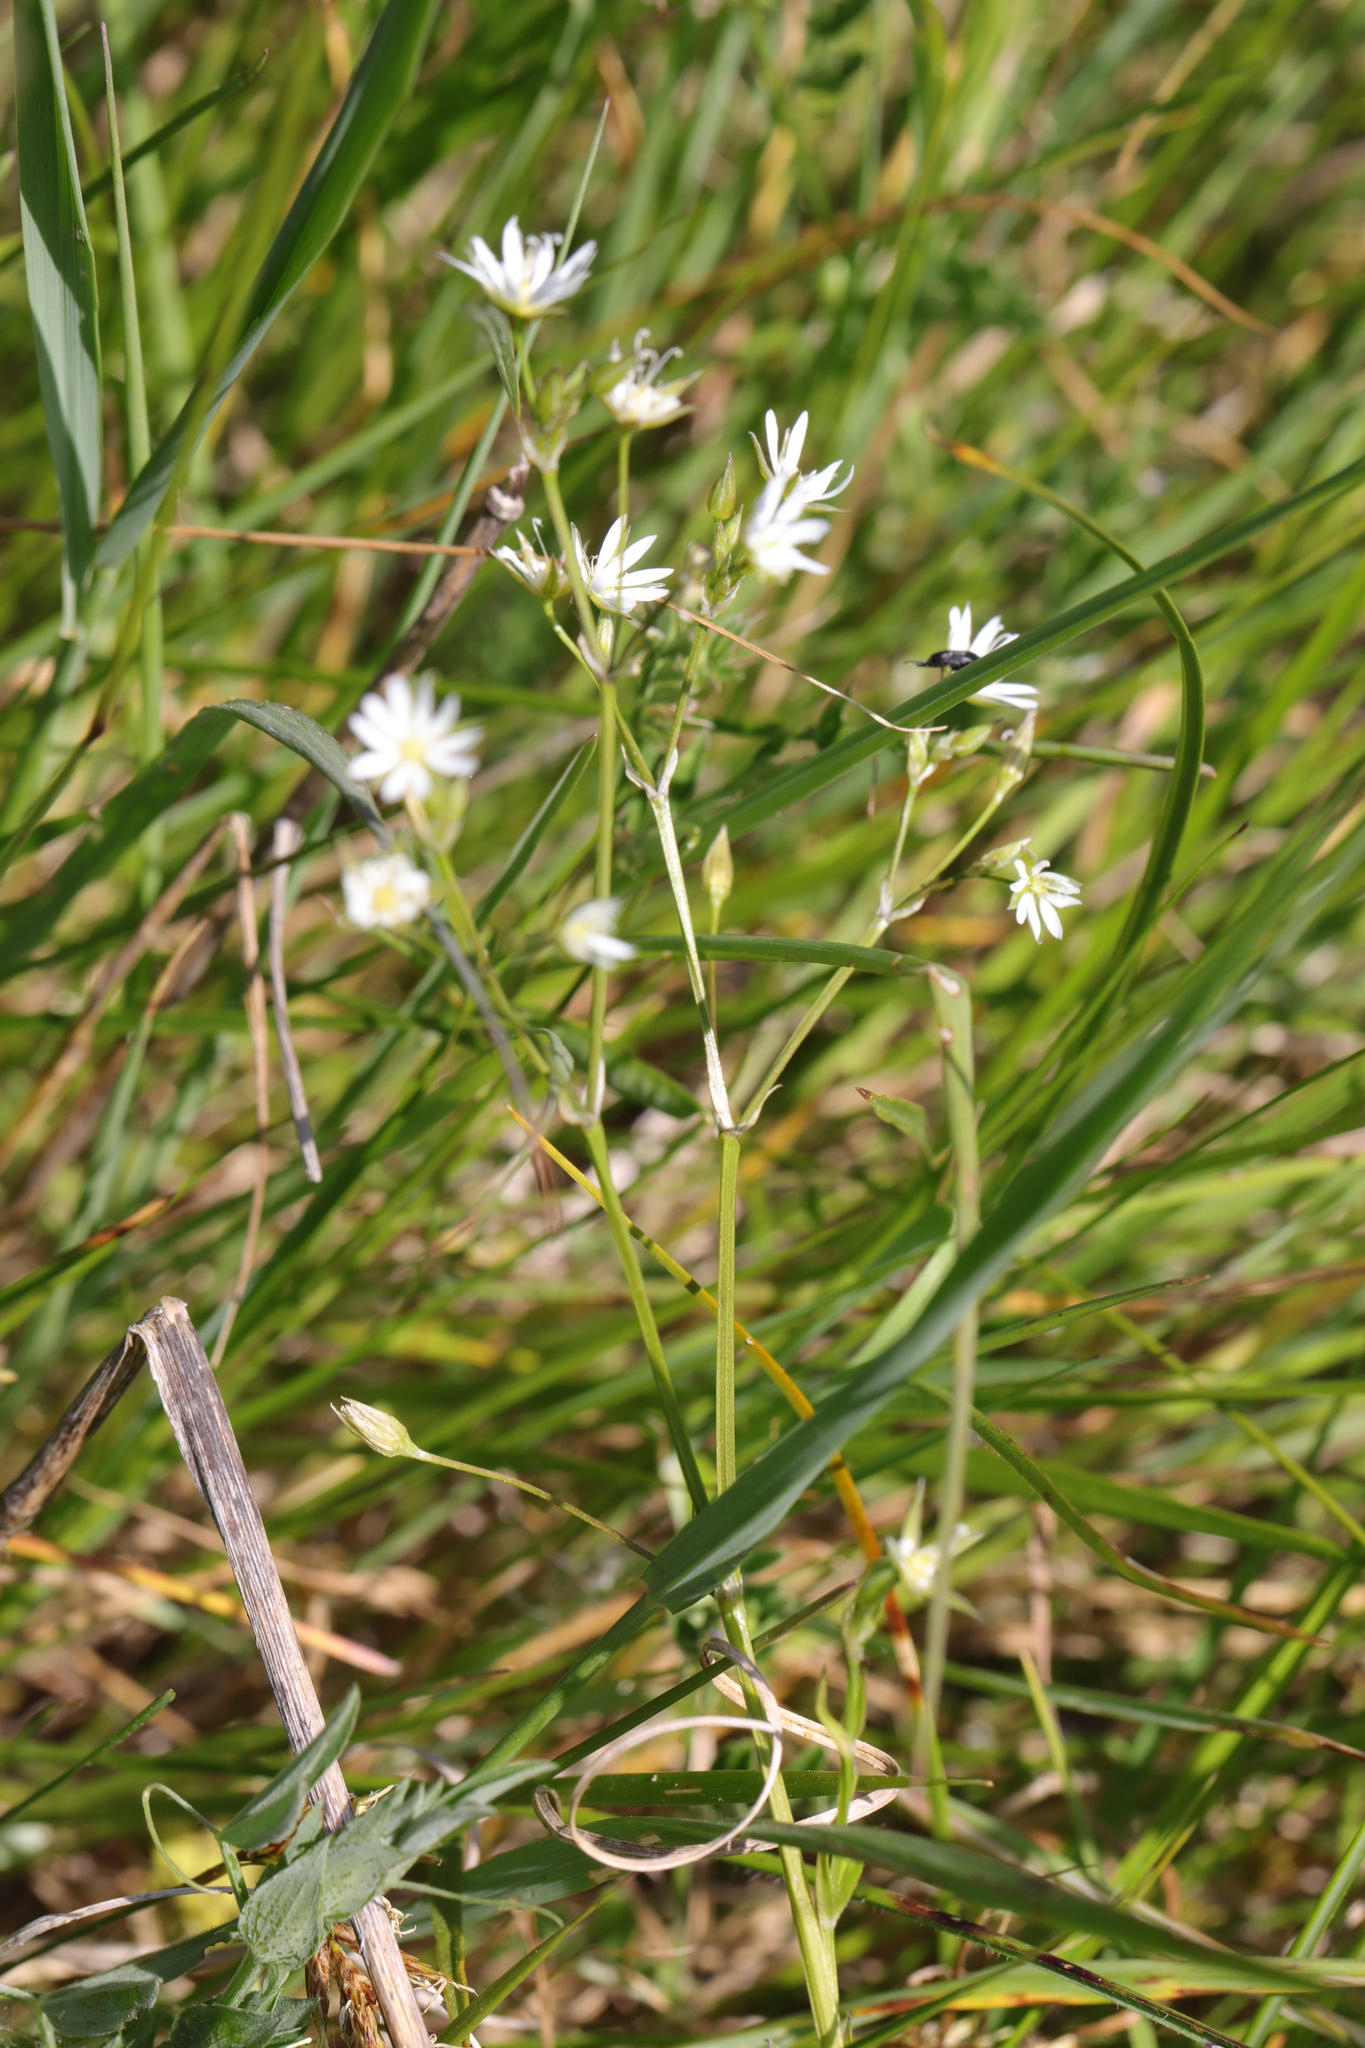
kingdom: Plantae
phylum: Tracheophyta
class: Magnoliopsida
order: Caryophyllales
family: Caryophyllaceae
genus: Stellaria
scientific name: Stellaria graminea
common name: Grass-like starwort
